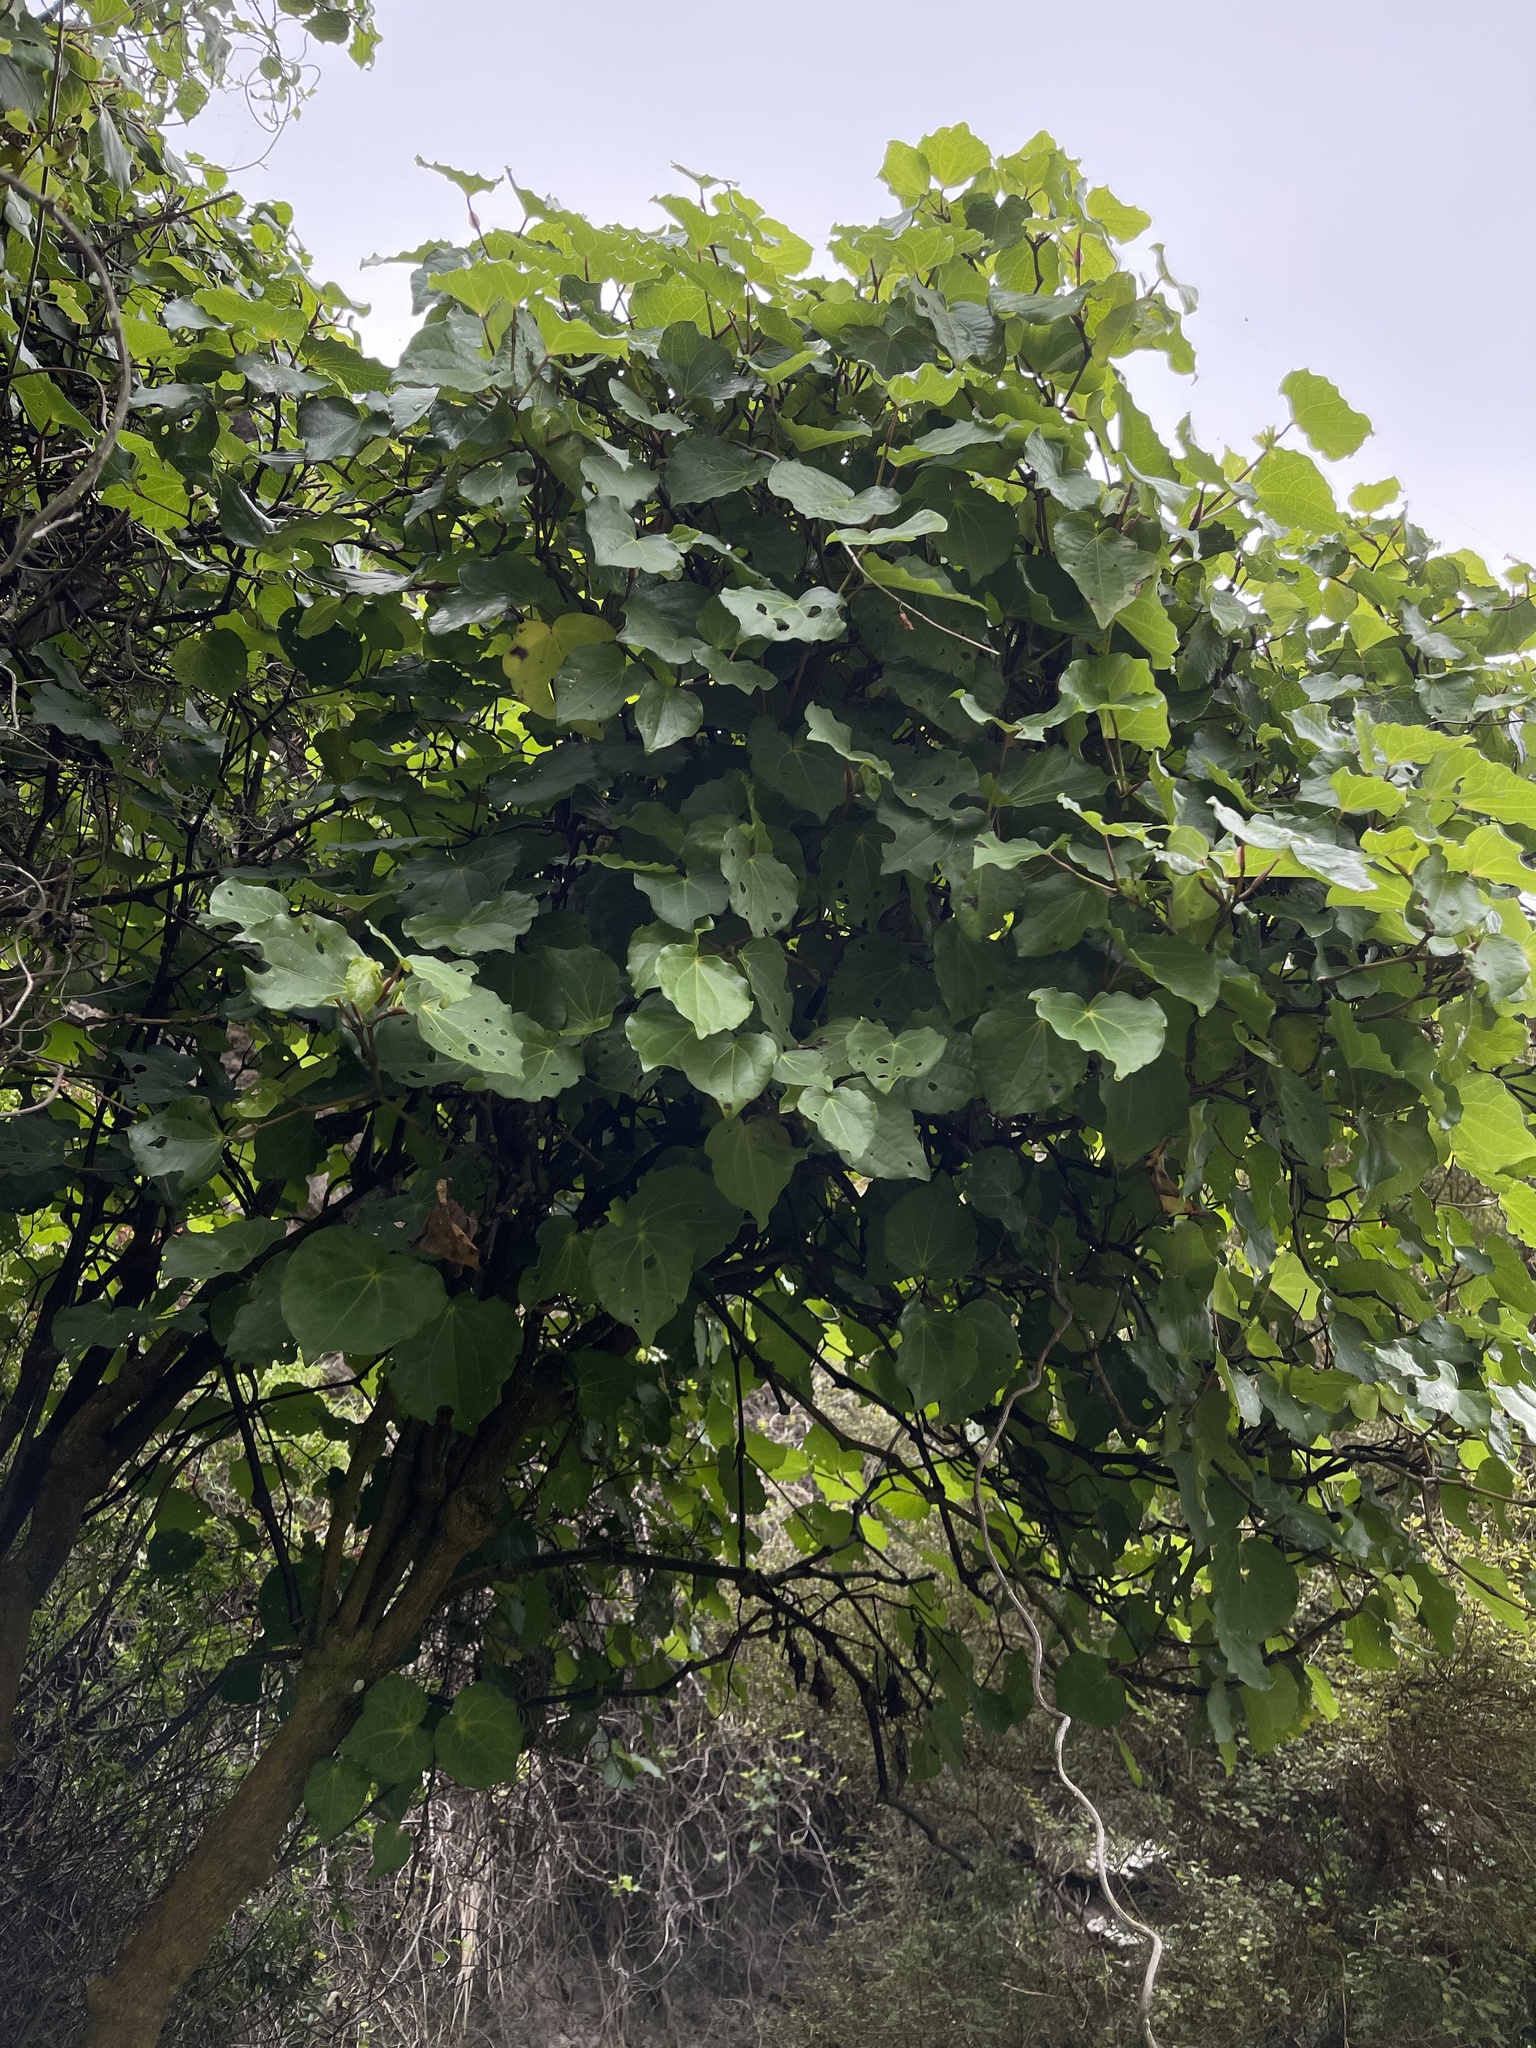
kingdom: Plantae
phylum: Tracheophyta
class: Magnoliopsida
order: Piperales
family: Piperaceae
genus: Macropiper
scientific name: Macropiper excelsum
